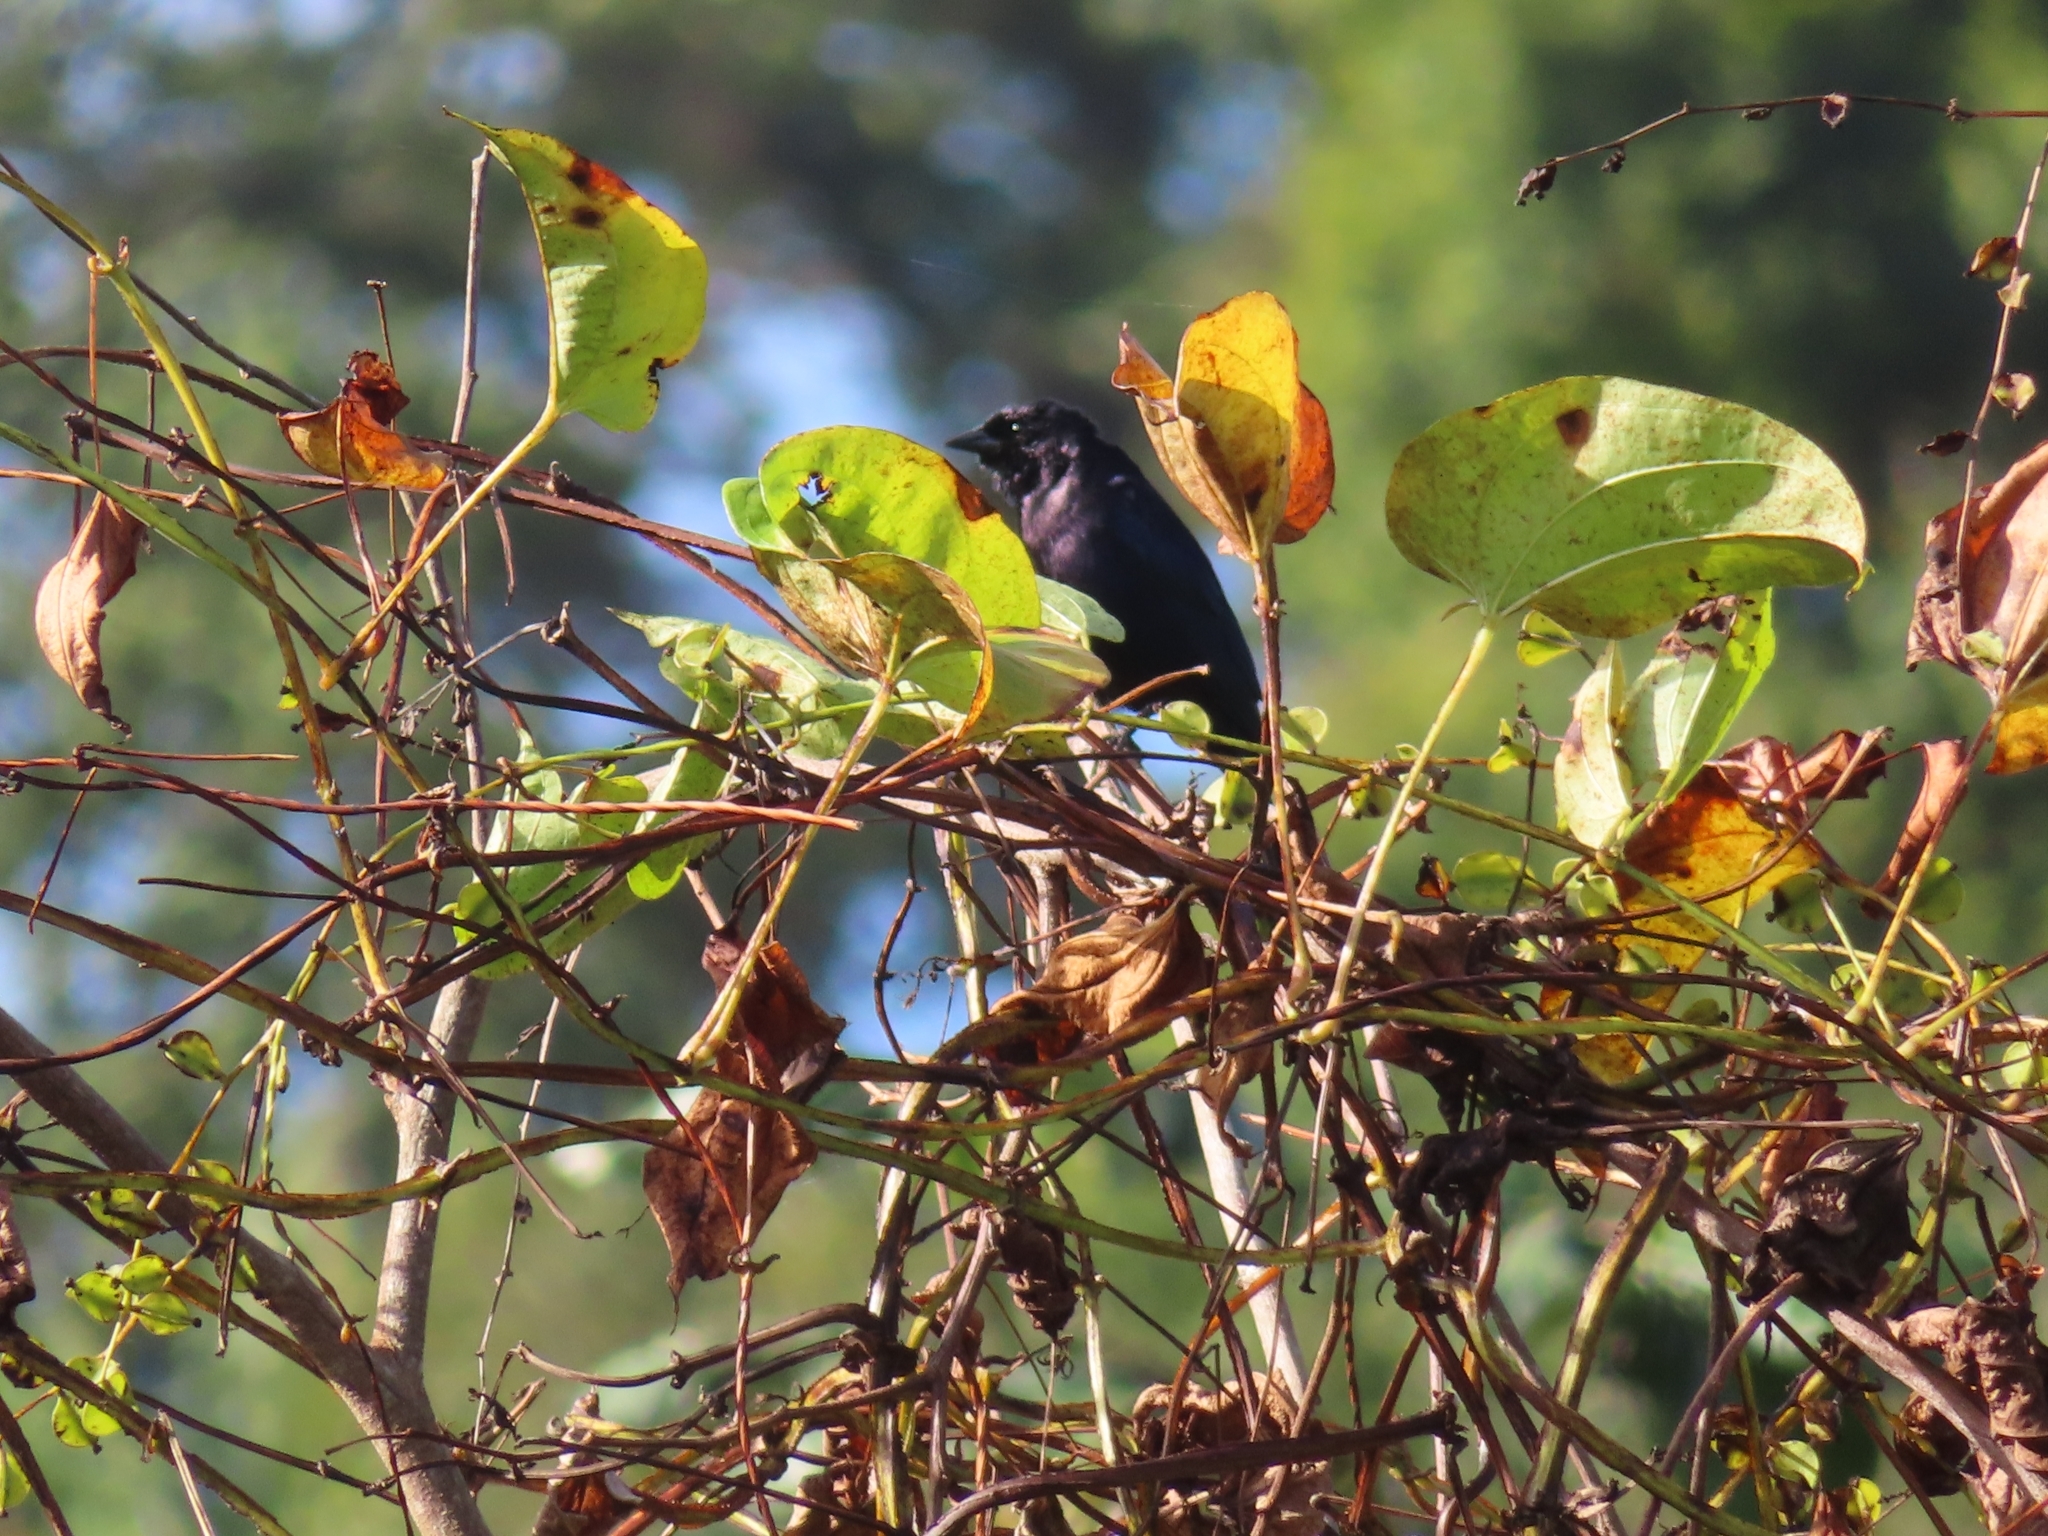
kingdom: Animalia
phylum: Chordata
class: Aves
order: Passeriformes
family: Icteridae
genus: Molothrus
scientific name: Molothrus bonariensis
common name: Shiny cowbird
